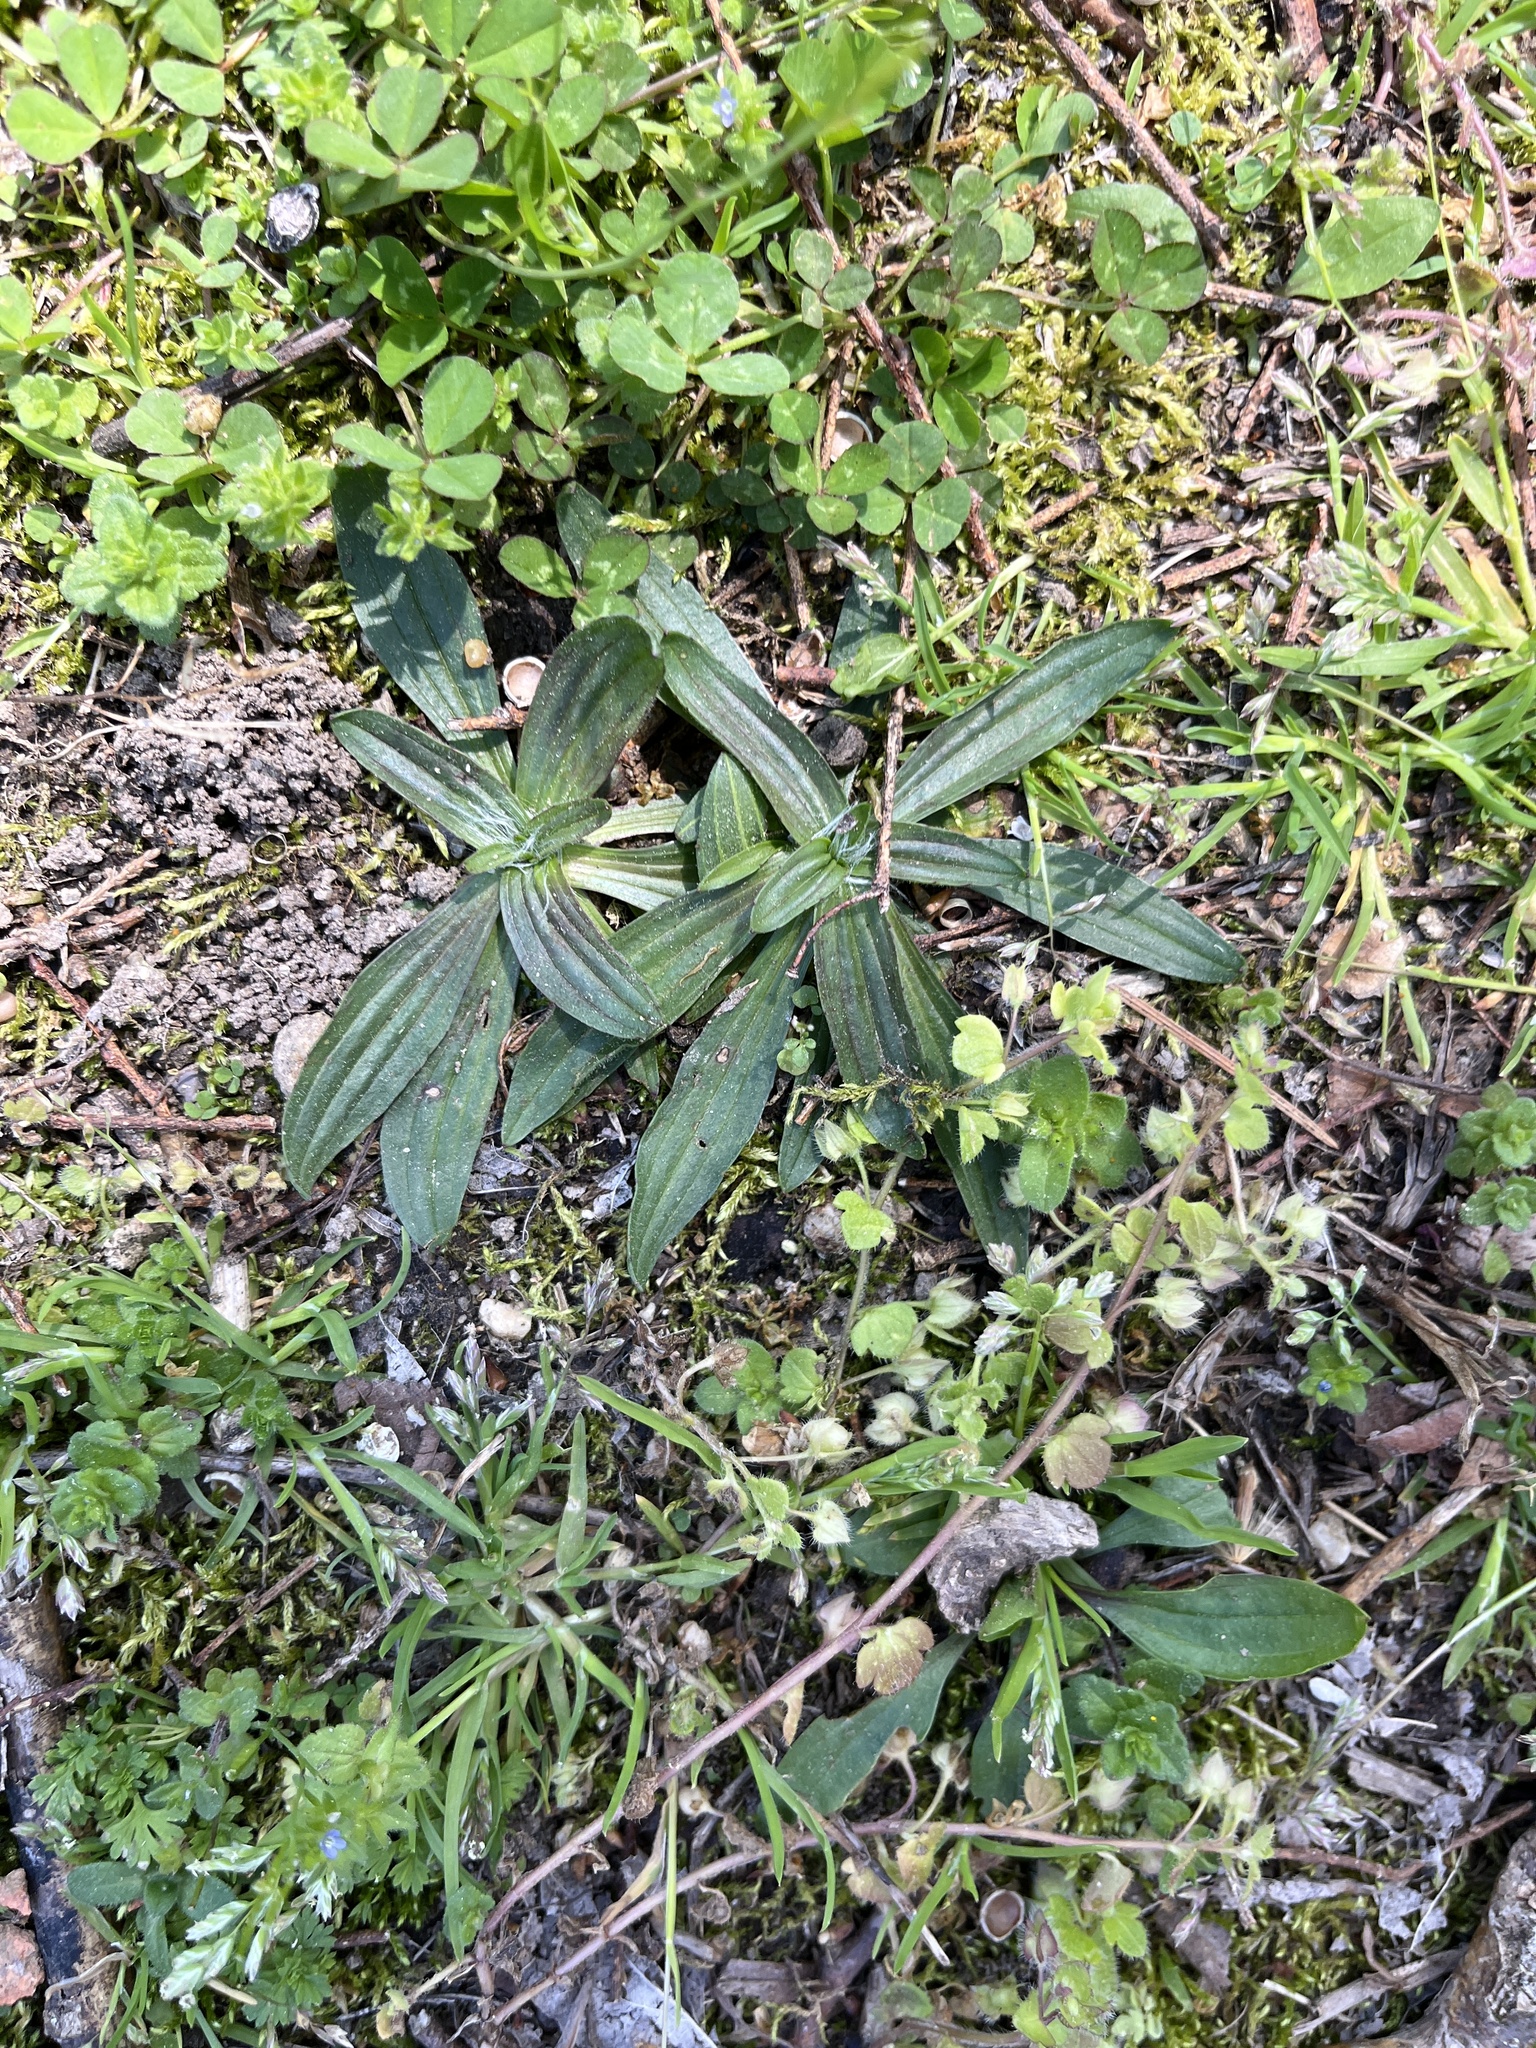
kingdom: Plantae
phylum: Tracheophyta
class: Magnoliopsida
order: Lamiales
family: Plantaginaceae
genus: Plantago
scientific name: Plantago lanceolata
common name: Ribwort plantain
